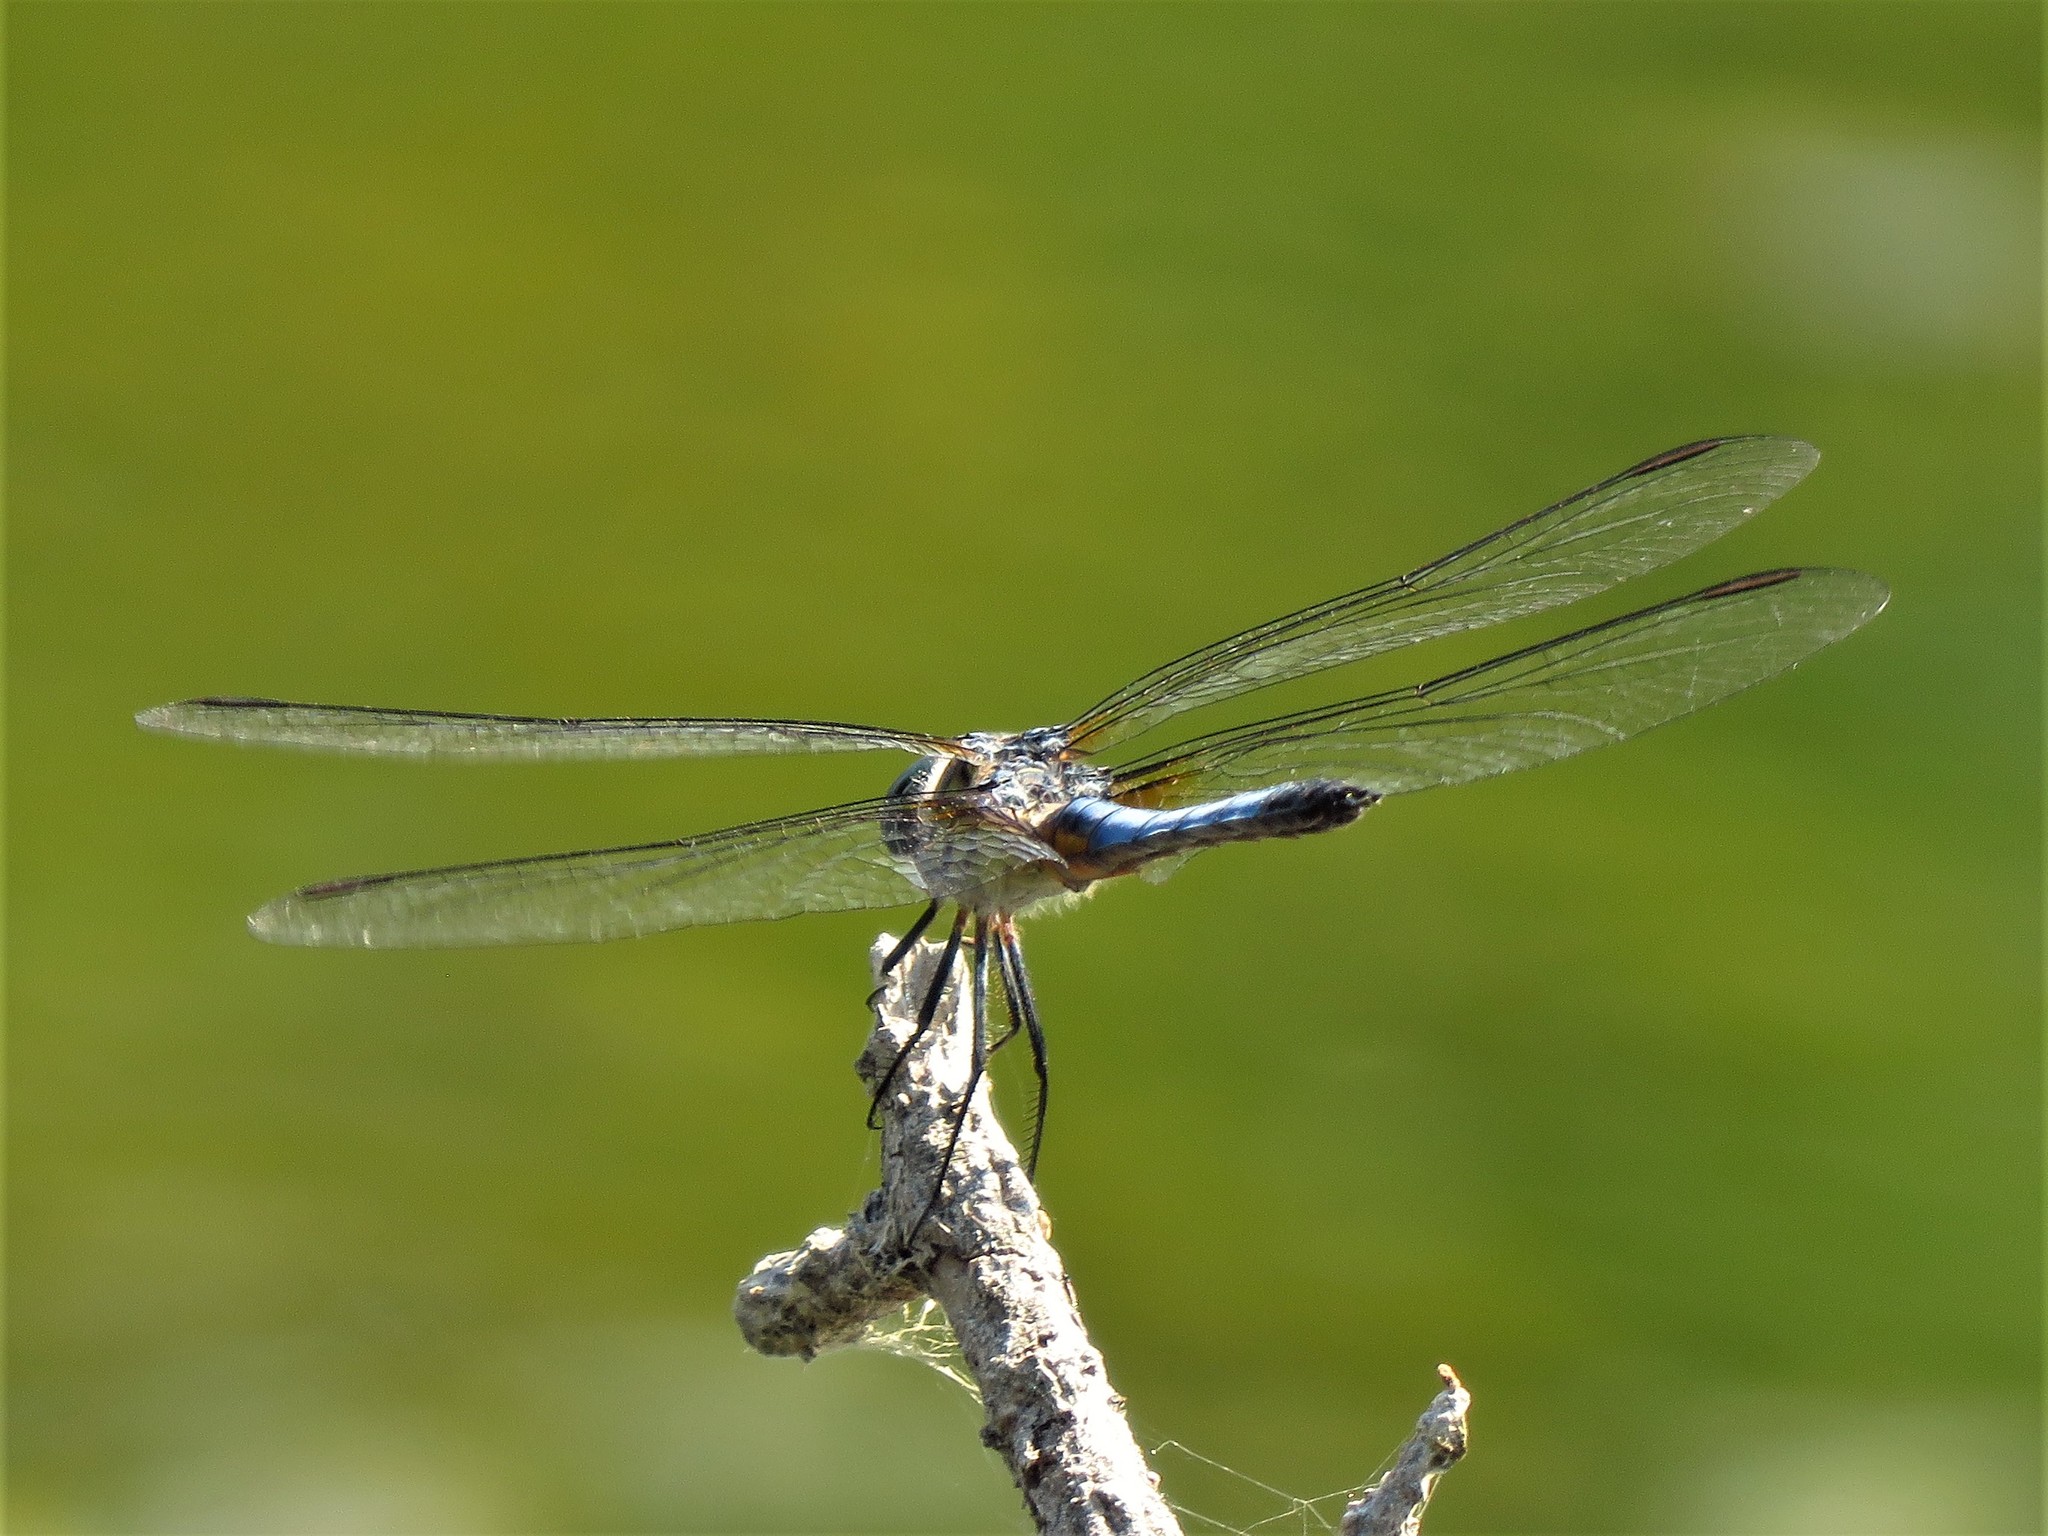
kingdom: Animalia
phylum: Arthropoda
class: Insecta
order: Odonata
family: Libellulidae
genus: Pachydiplax
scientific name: Pachydiplax longipennis
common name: Blue dasher
